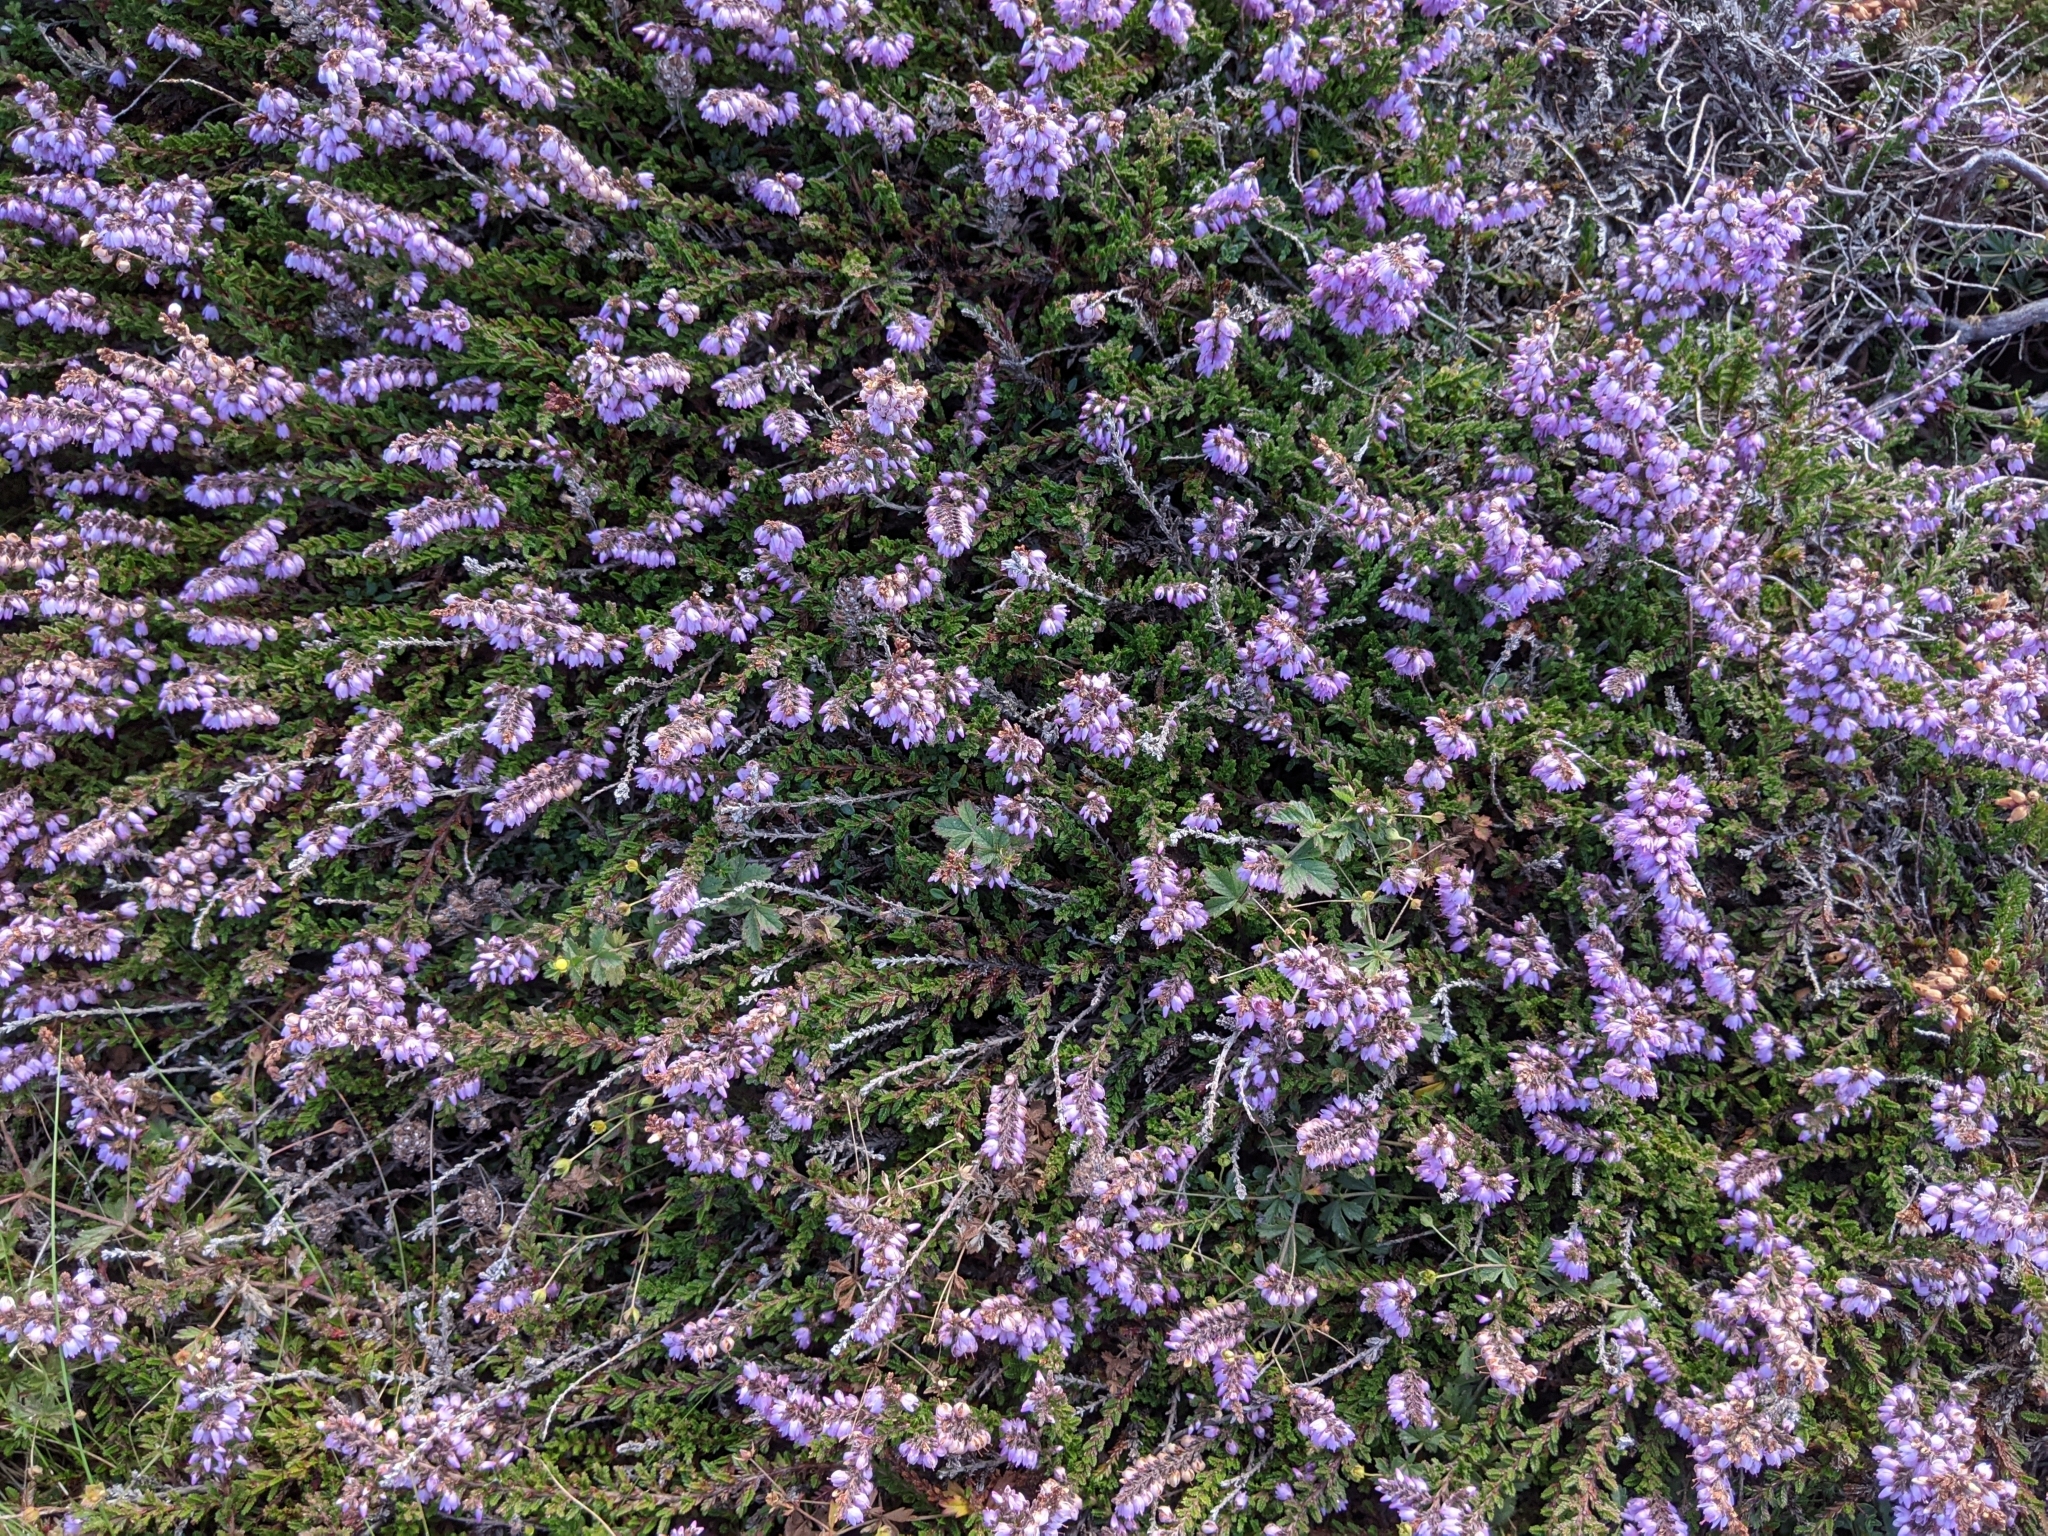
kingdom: Plantae
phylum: Tracheophyta
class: Magnoliopsida
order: Ericales
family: Ericaceae
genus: Calluna
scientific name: Calluna vulgaris
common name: Heather
